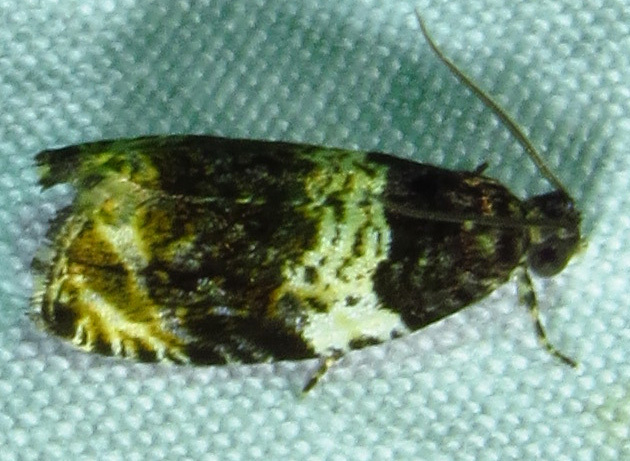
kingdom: Animalia
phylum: Arthropoda
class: Insecta
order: Lepidoptera
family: Tortricidae
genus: Olethreutes
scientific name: Olethreutes fasciatana
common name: Banded olethreutes moth
